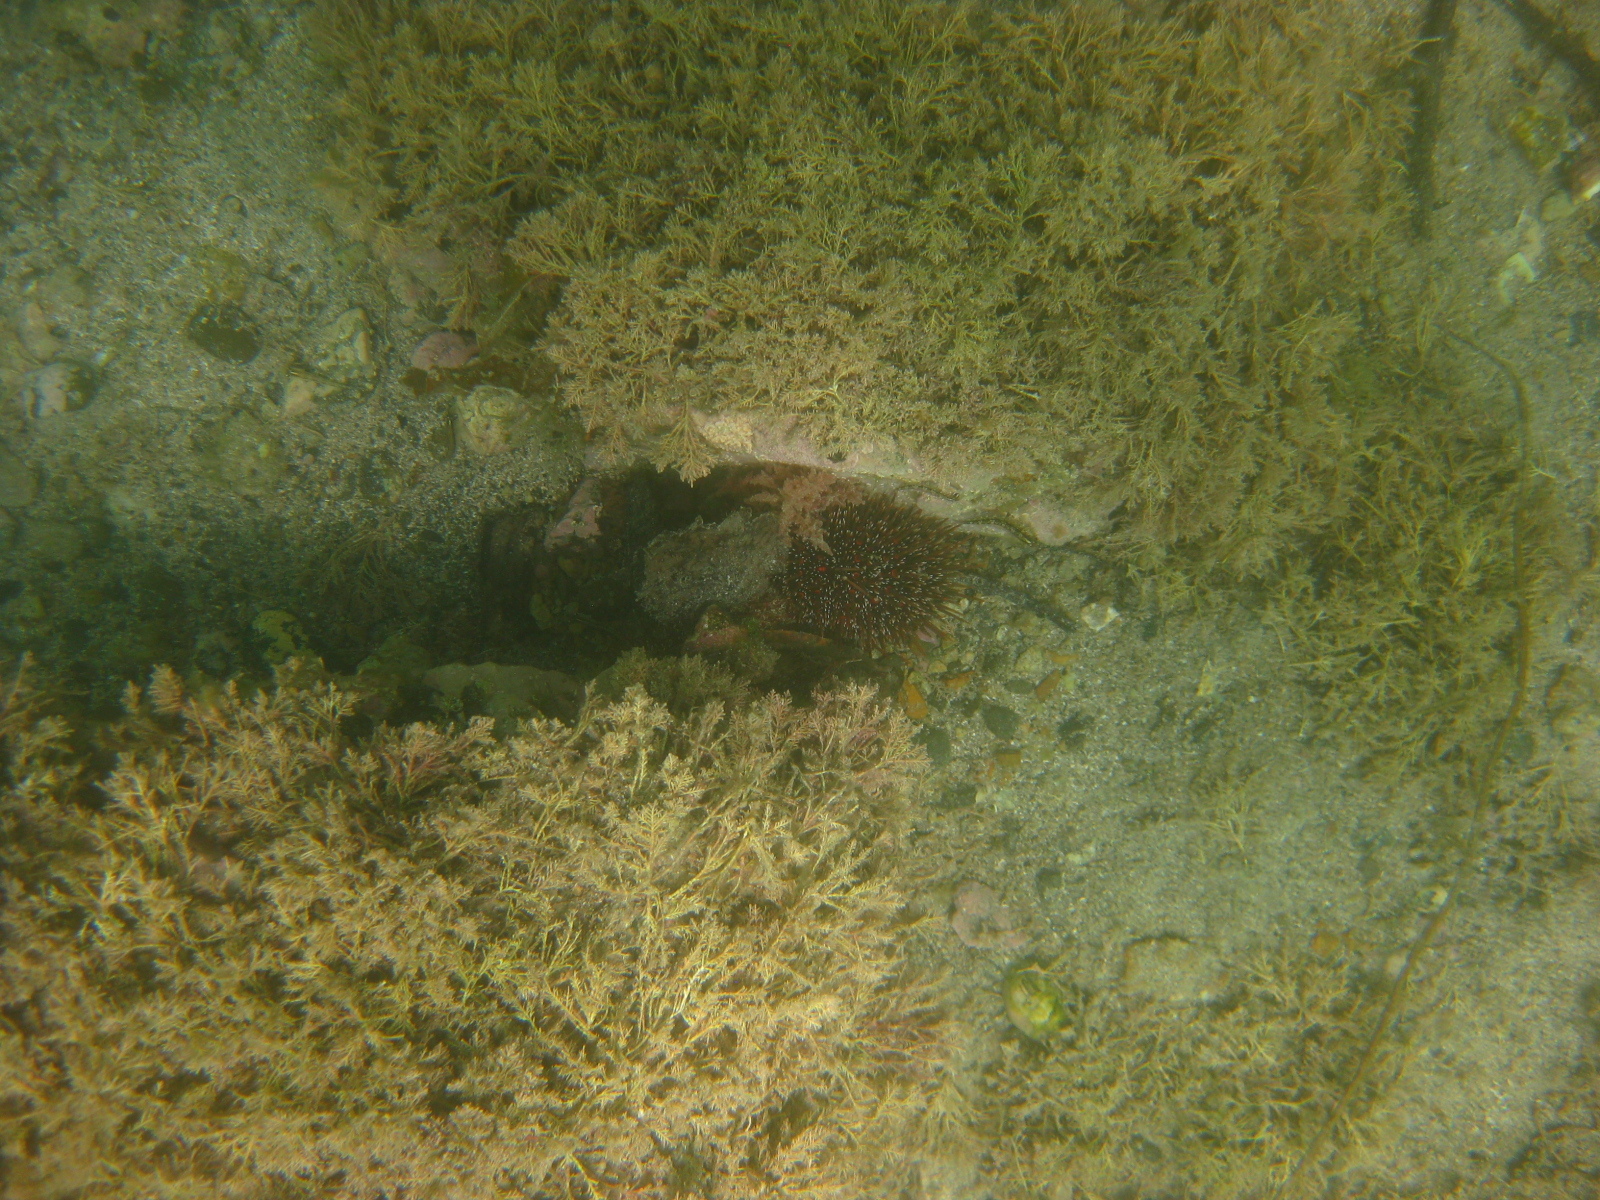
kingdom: Animalia
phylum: Echinodermata
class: Echinoidea
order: Camarodonta
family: Echinometridae
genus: Evechinus
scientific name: Evechinus chloroticus
